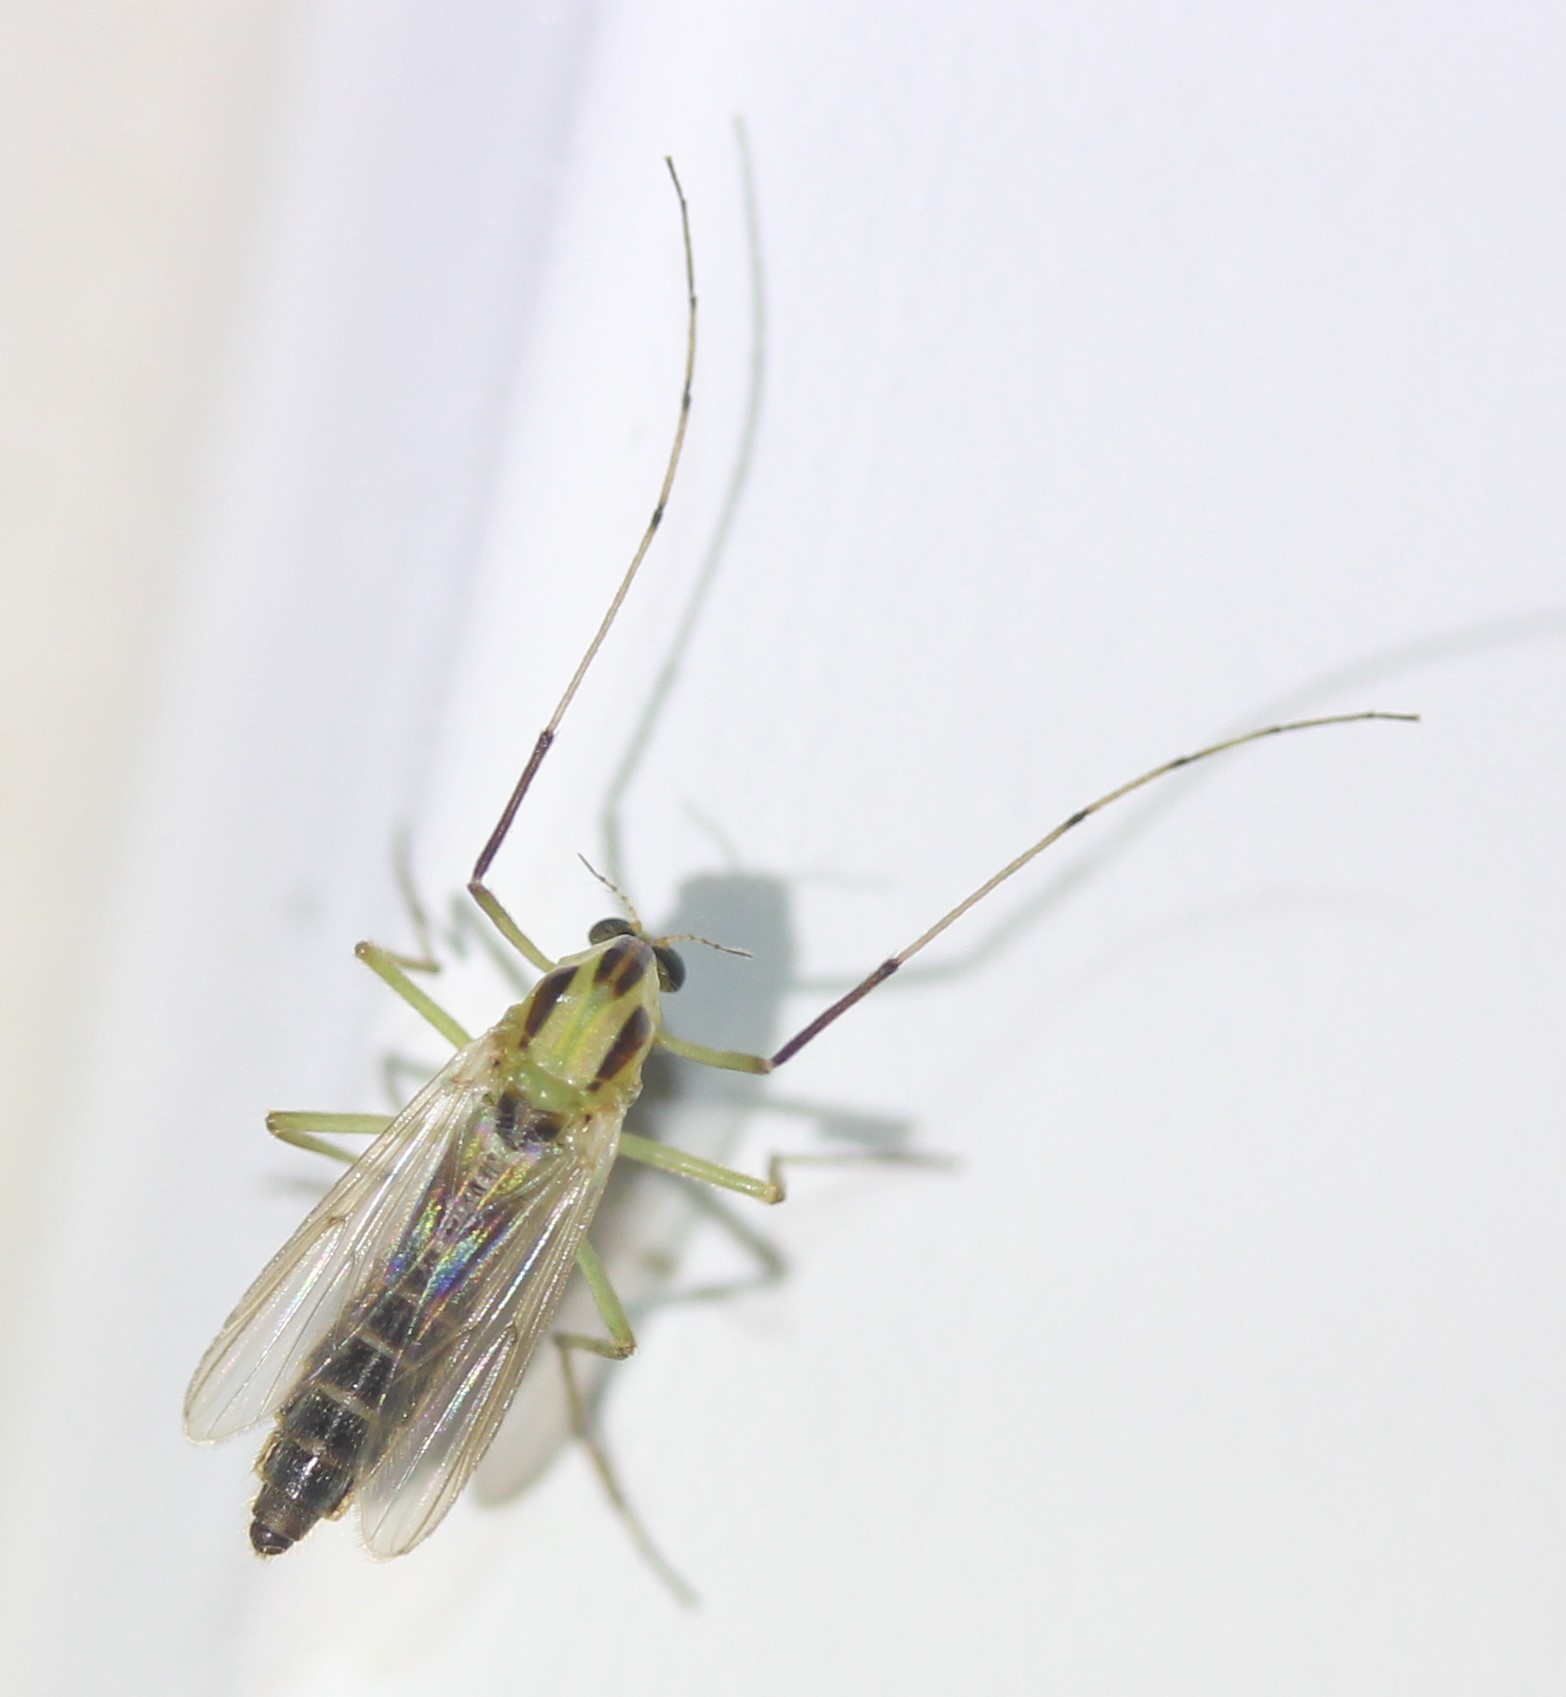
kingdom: Animalia
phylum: Arthropoda
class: Insecta
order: Diptera
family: Chironomidae
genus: Chironomus
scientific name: Chironomus atroviridis
